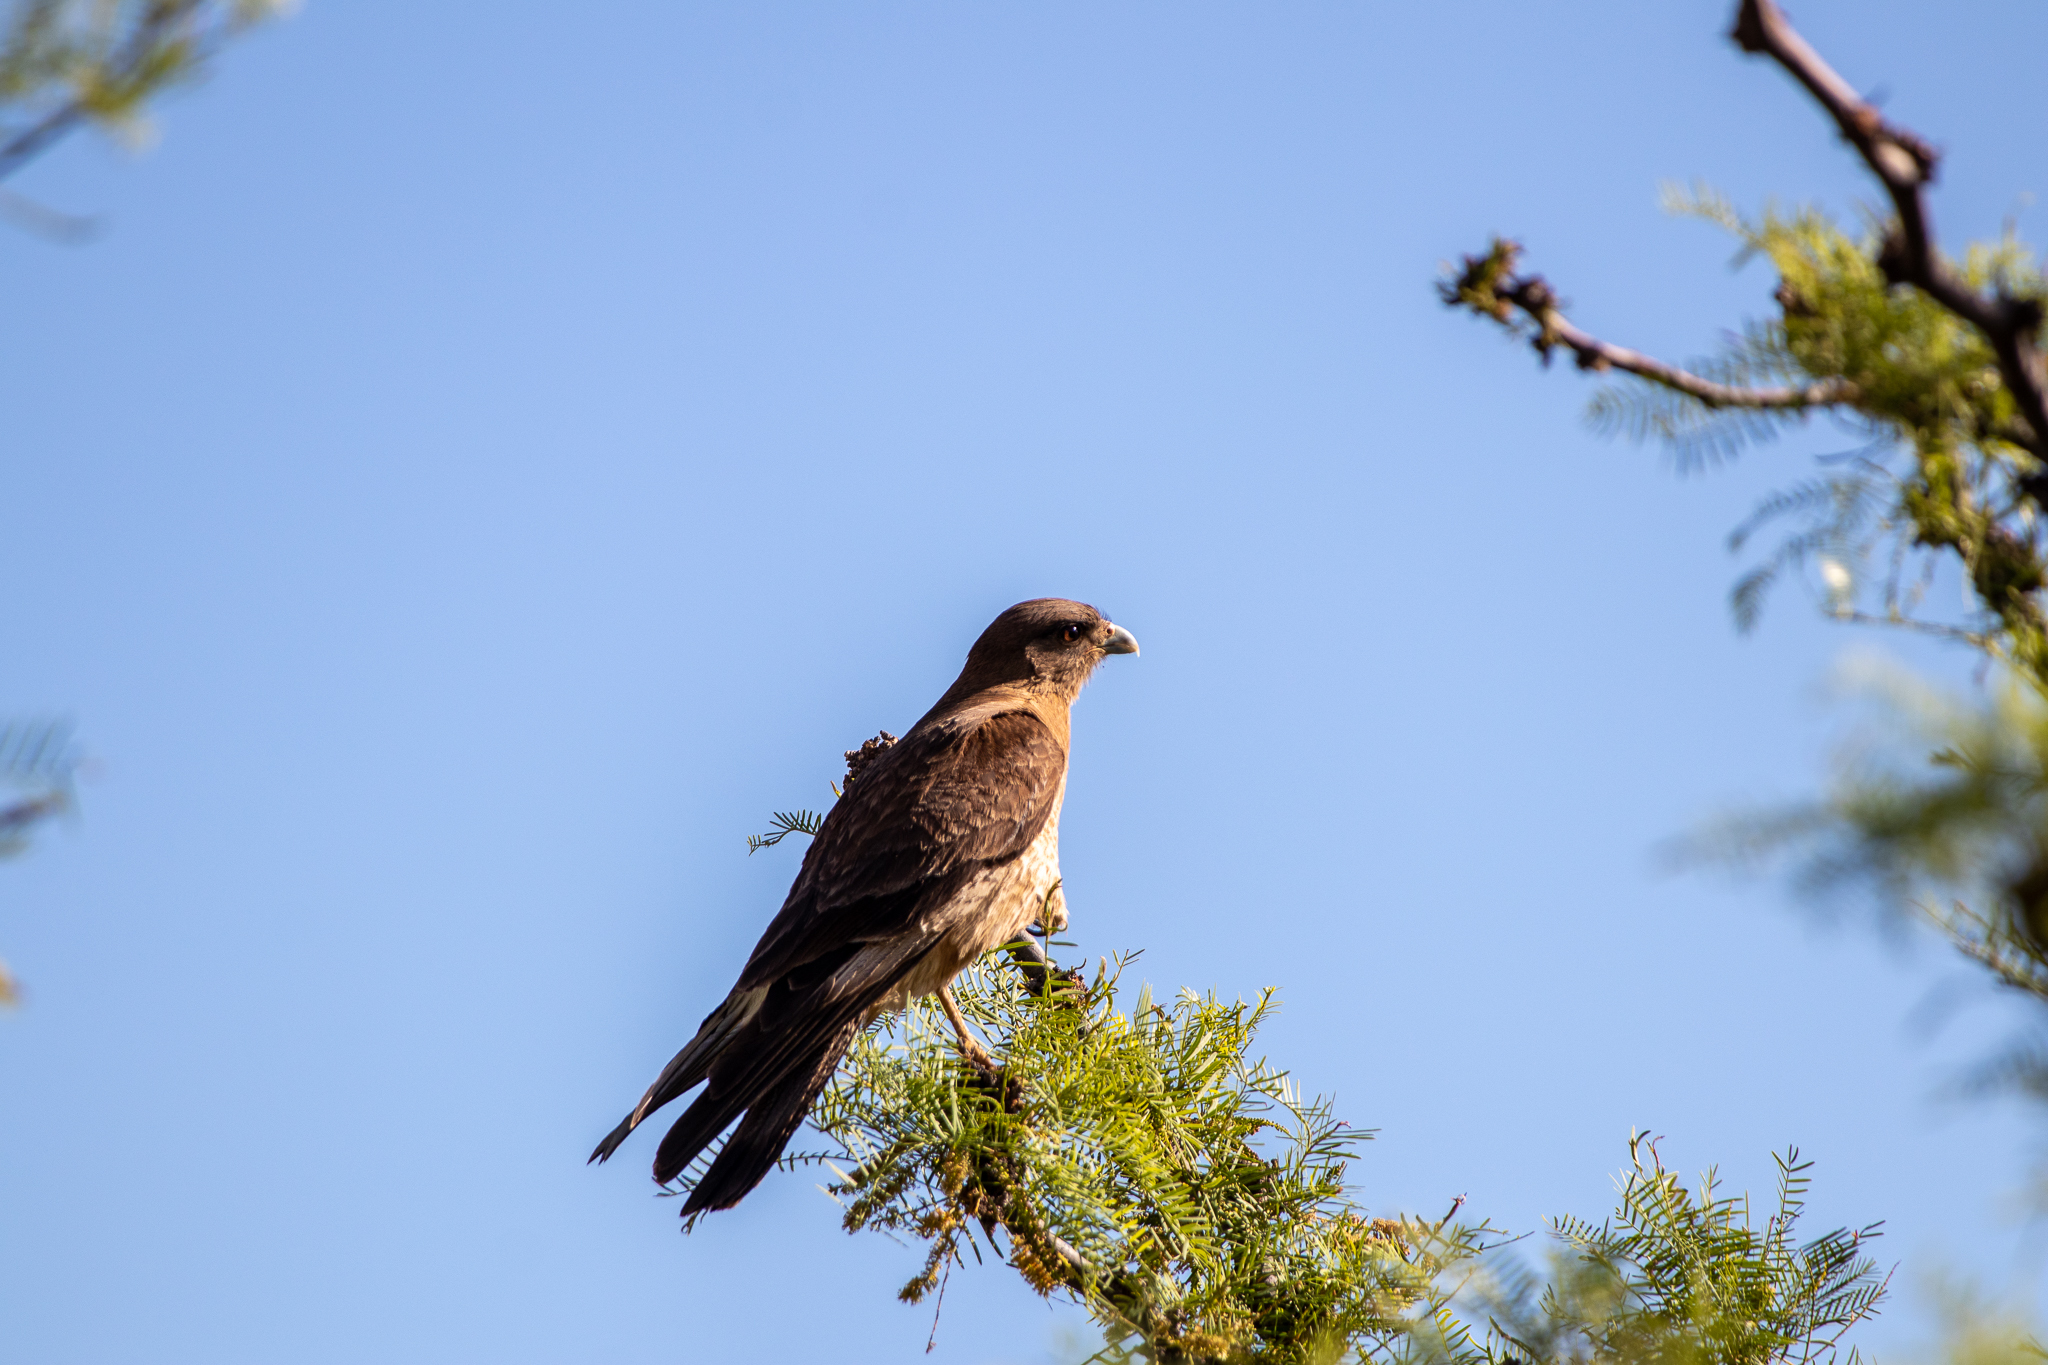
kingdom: Animalia
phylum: Chordata
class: Aves
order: Falconiformes
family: Falconidae
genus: Daptrius
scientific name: Daptrius
